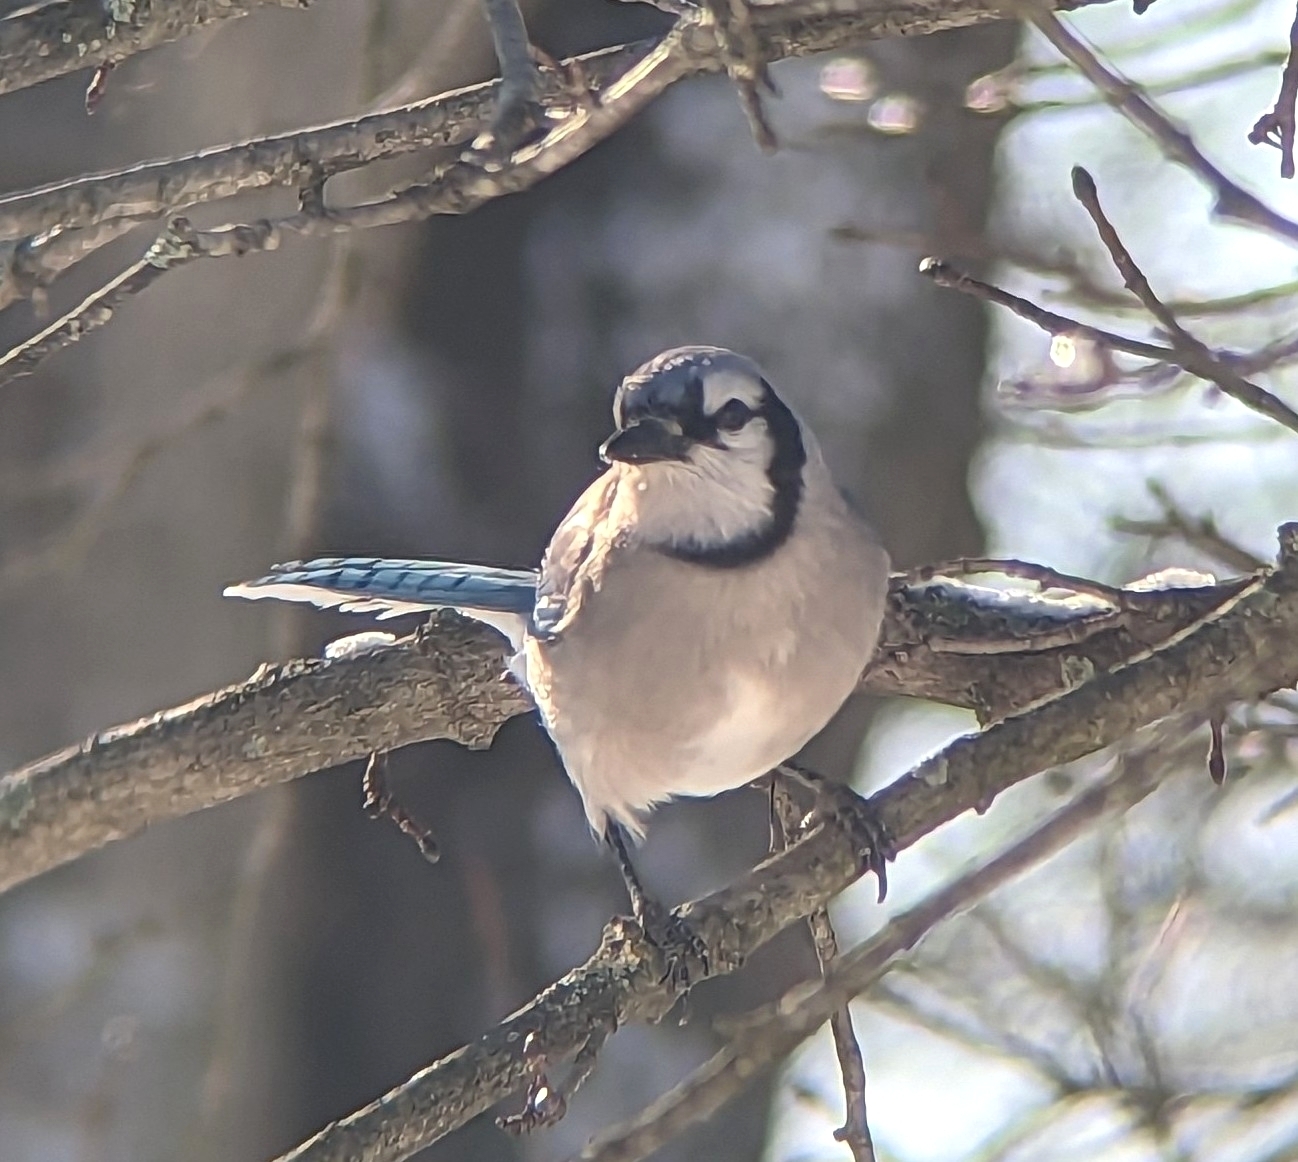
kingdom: Animalia
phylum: Chordata
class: Aves
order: Passeriformes
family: Corvidae
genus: Cyanocitta
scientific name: Cyanocitta cristata
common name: Blue jay
